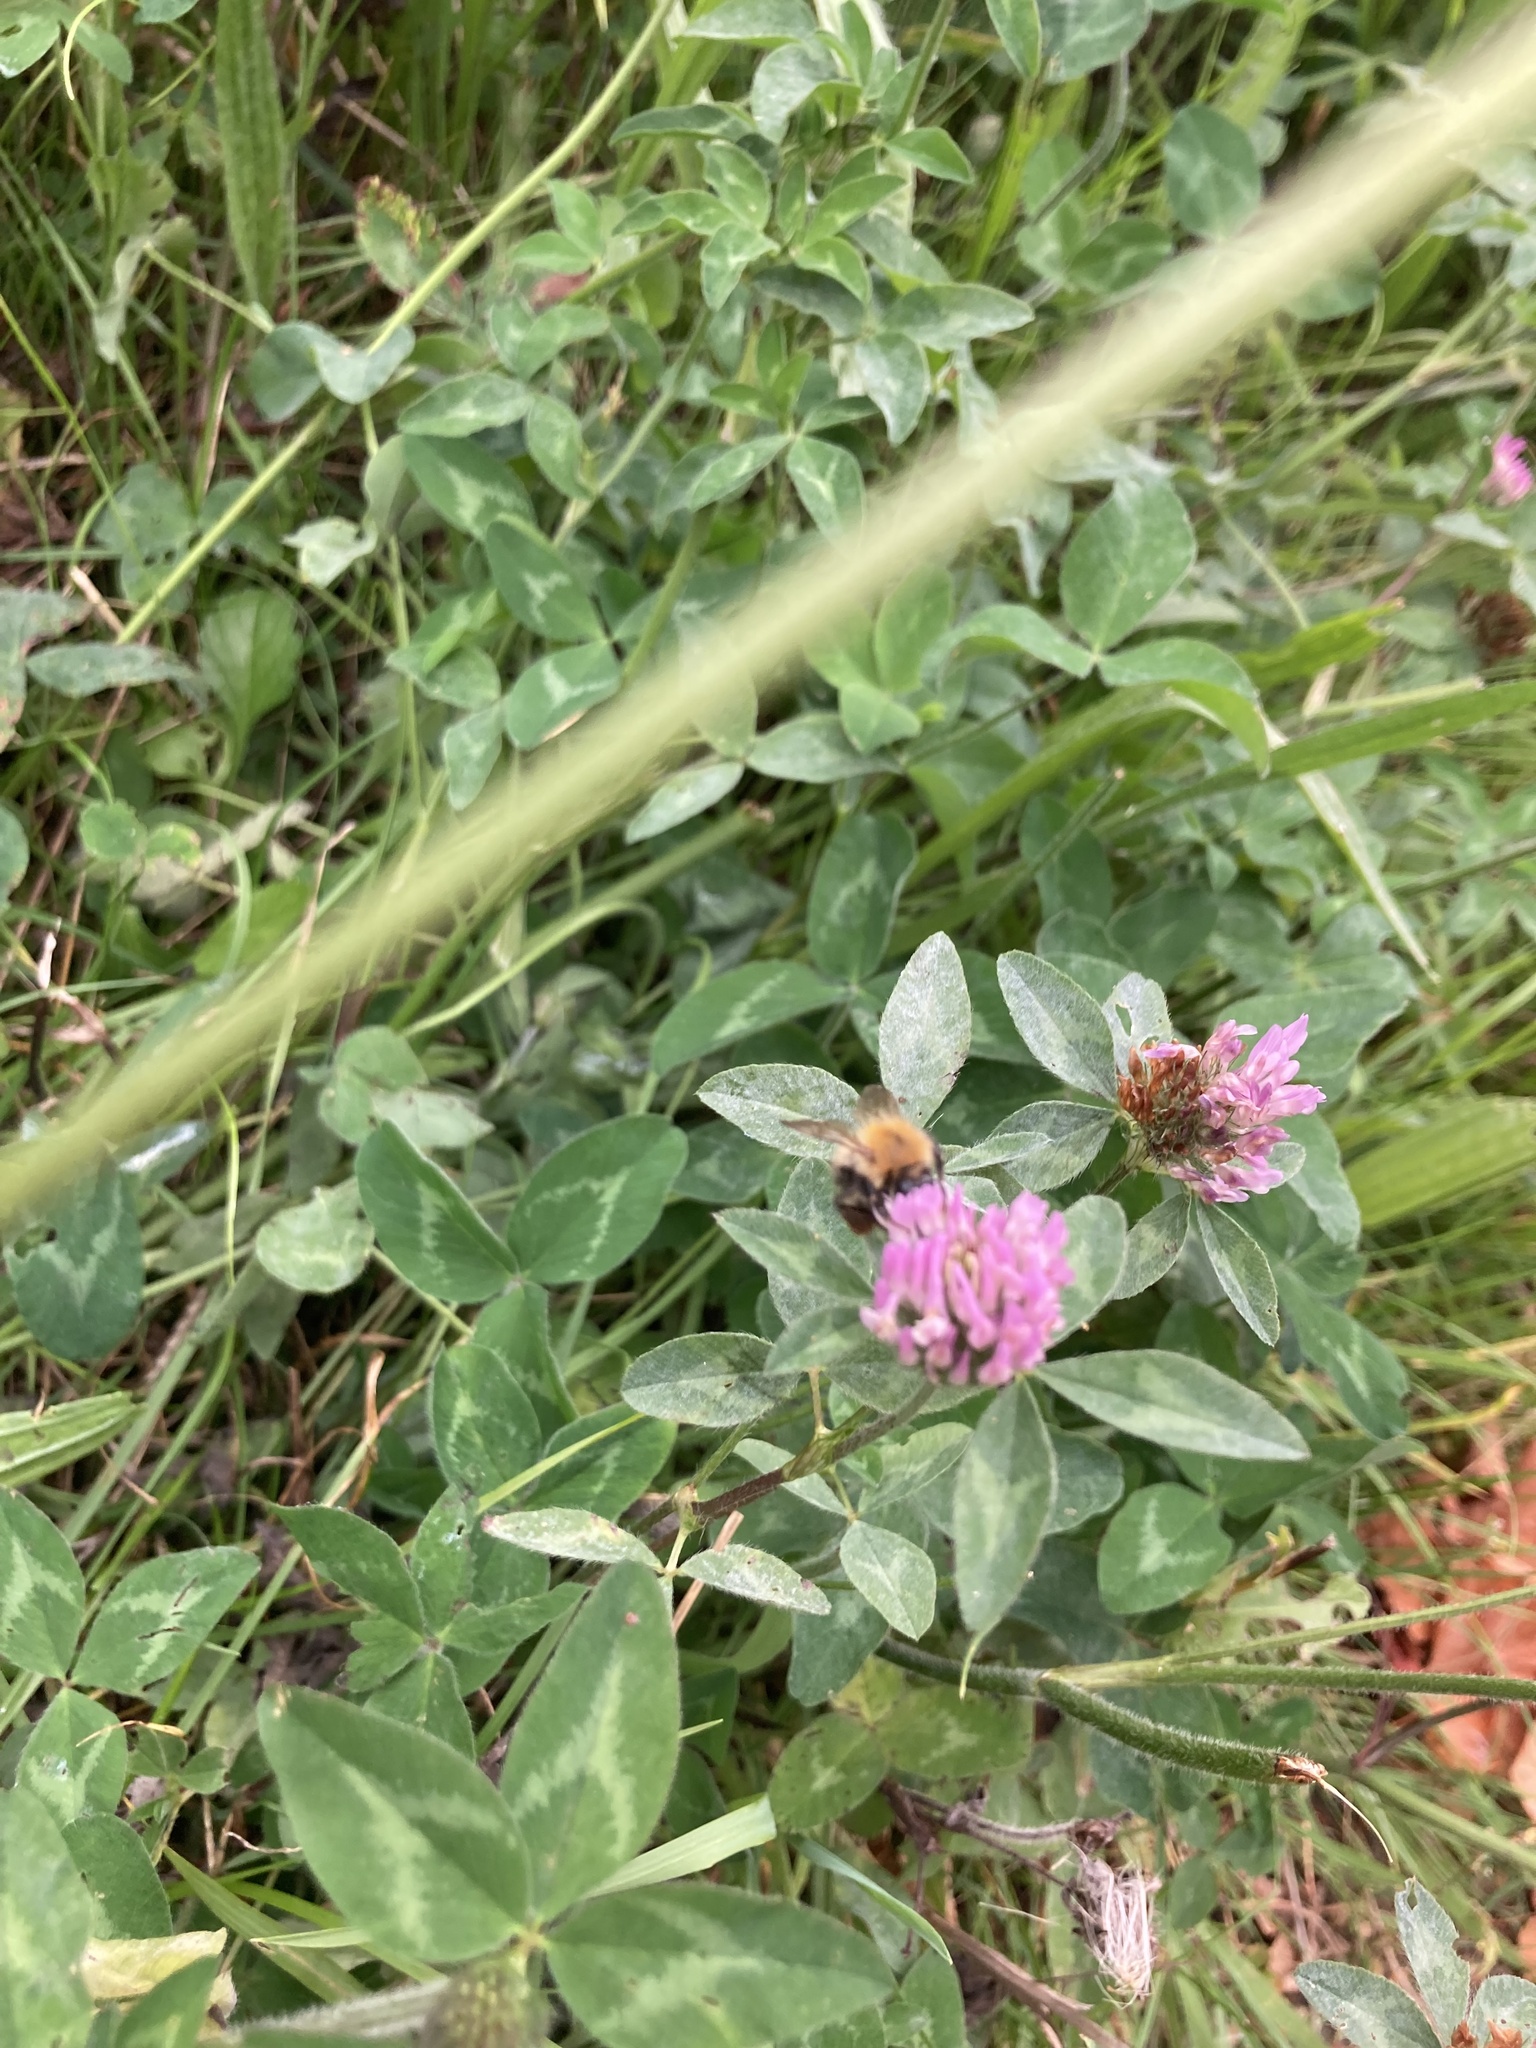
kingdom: Animalia
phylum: Arthropoda
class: Insecta
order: Hymenoptera
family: Apidae
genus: Bombus
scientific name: Bombus pascuorum
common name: Common carder bee
